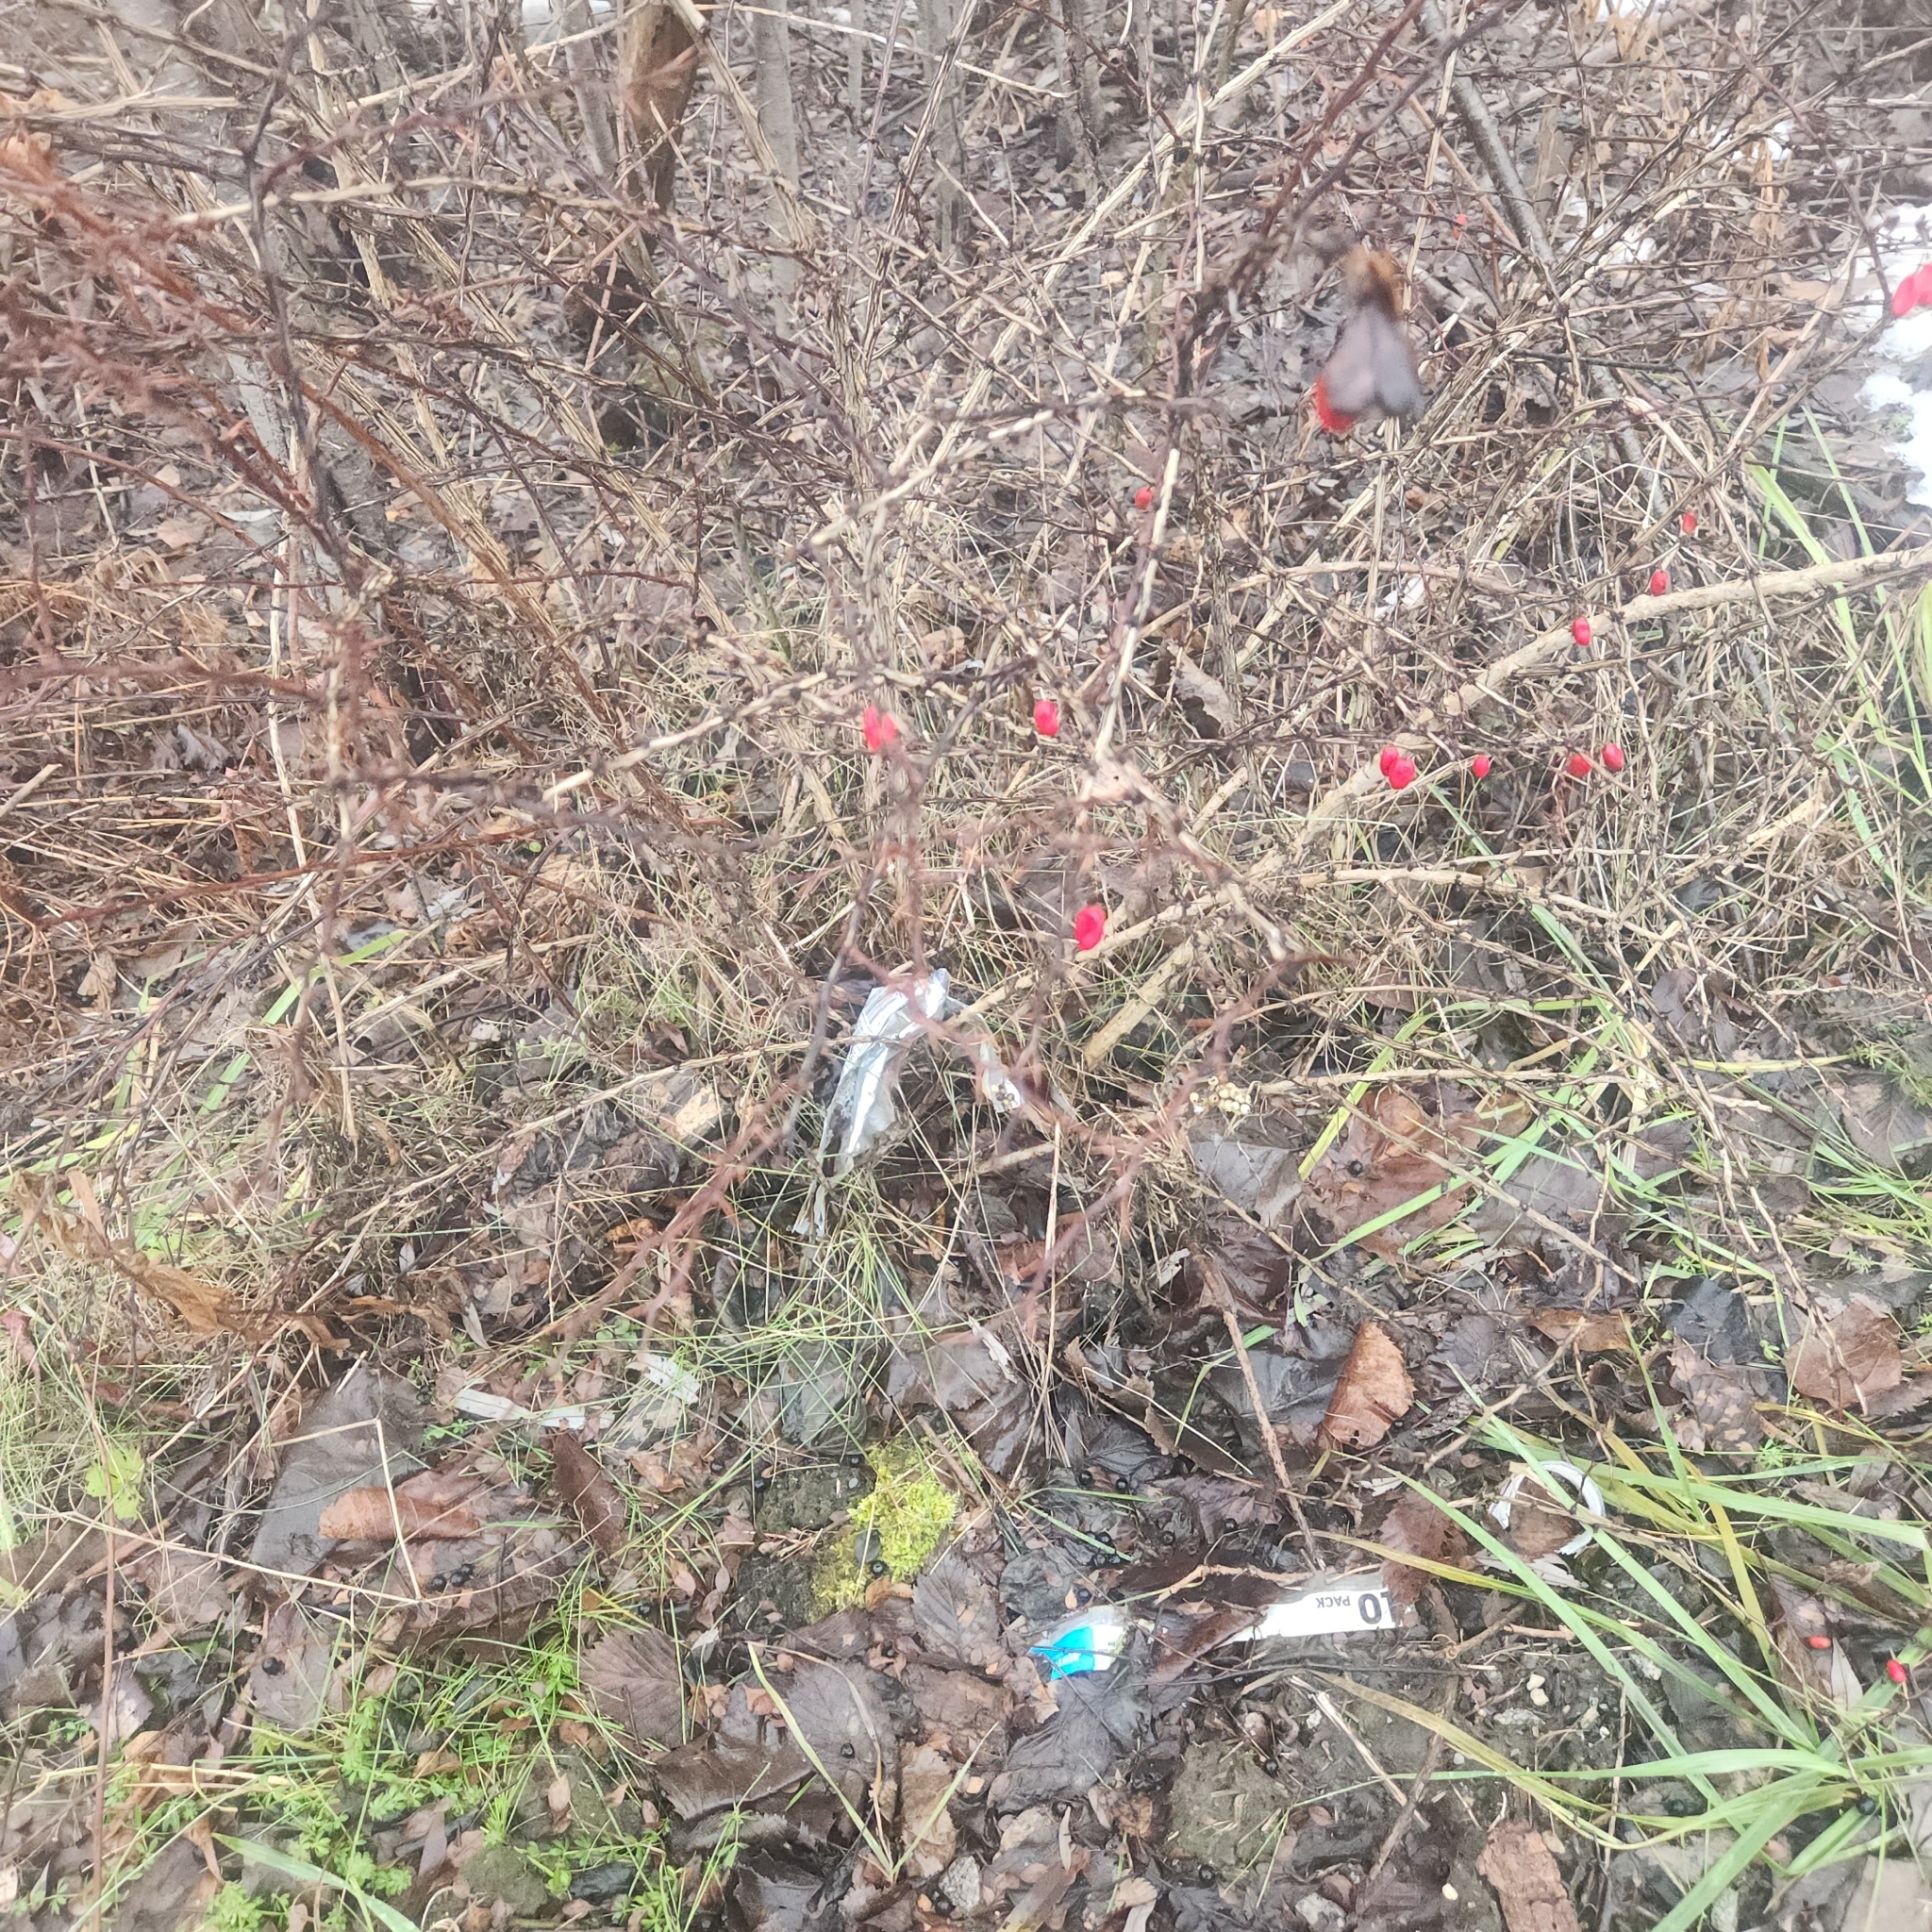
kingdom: Plantae
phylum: Tracheophyta
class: Magnoliopsida
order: Ranunculales
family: Berberidaceae
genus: Berberis
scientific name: Berberis thunbergii
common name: Japanese barberry
